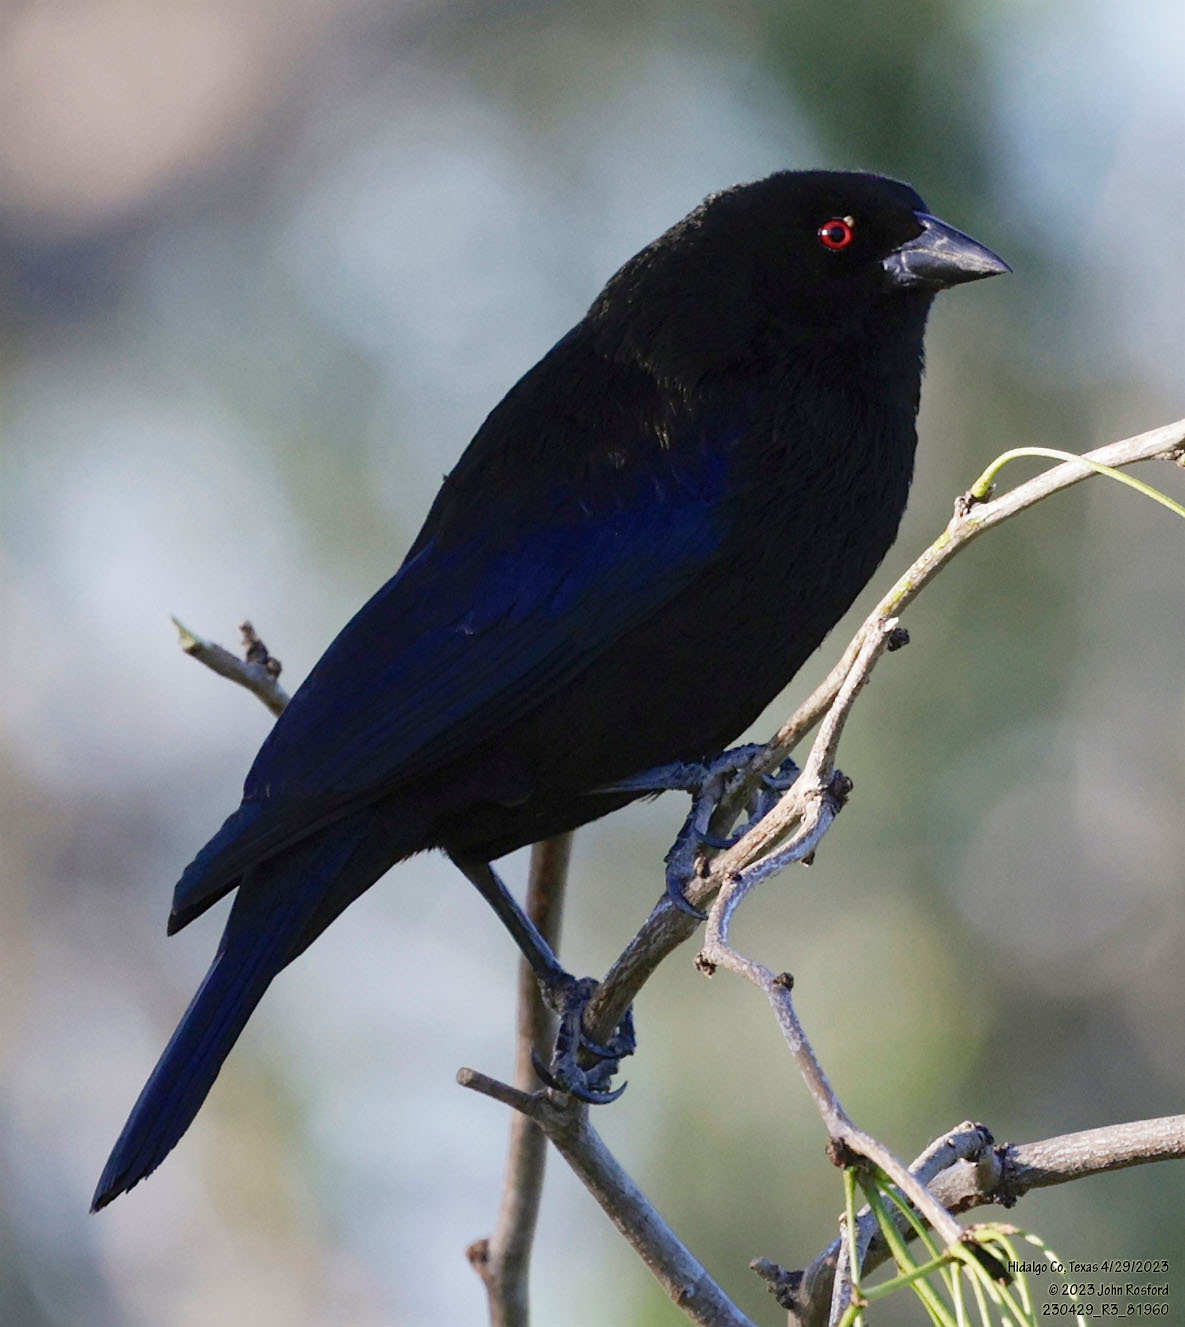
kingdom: Animalia
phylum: Chordata
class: Aves
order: Passeriformes
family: Icteridae
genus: Molothrus
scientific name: Molothrus aeneus
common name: Bronzed cowbird
